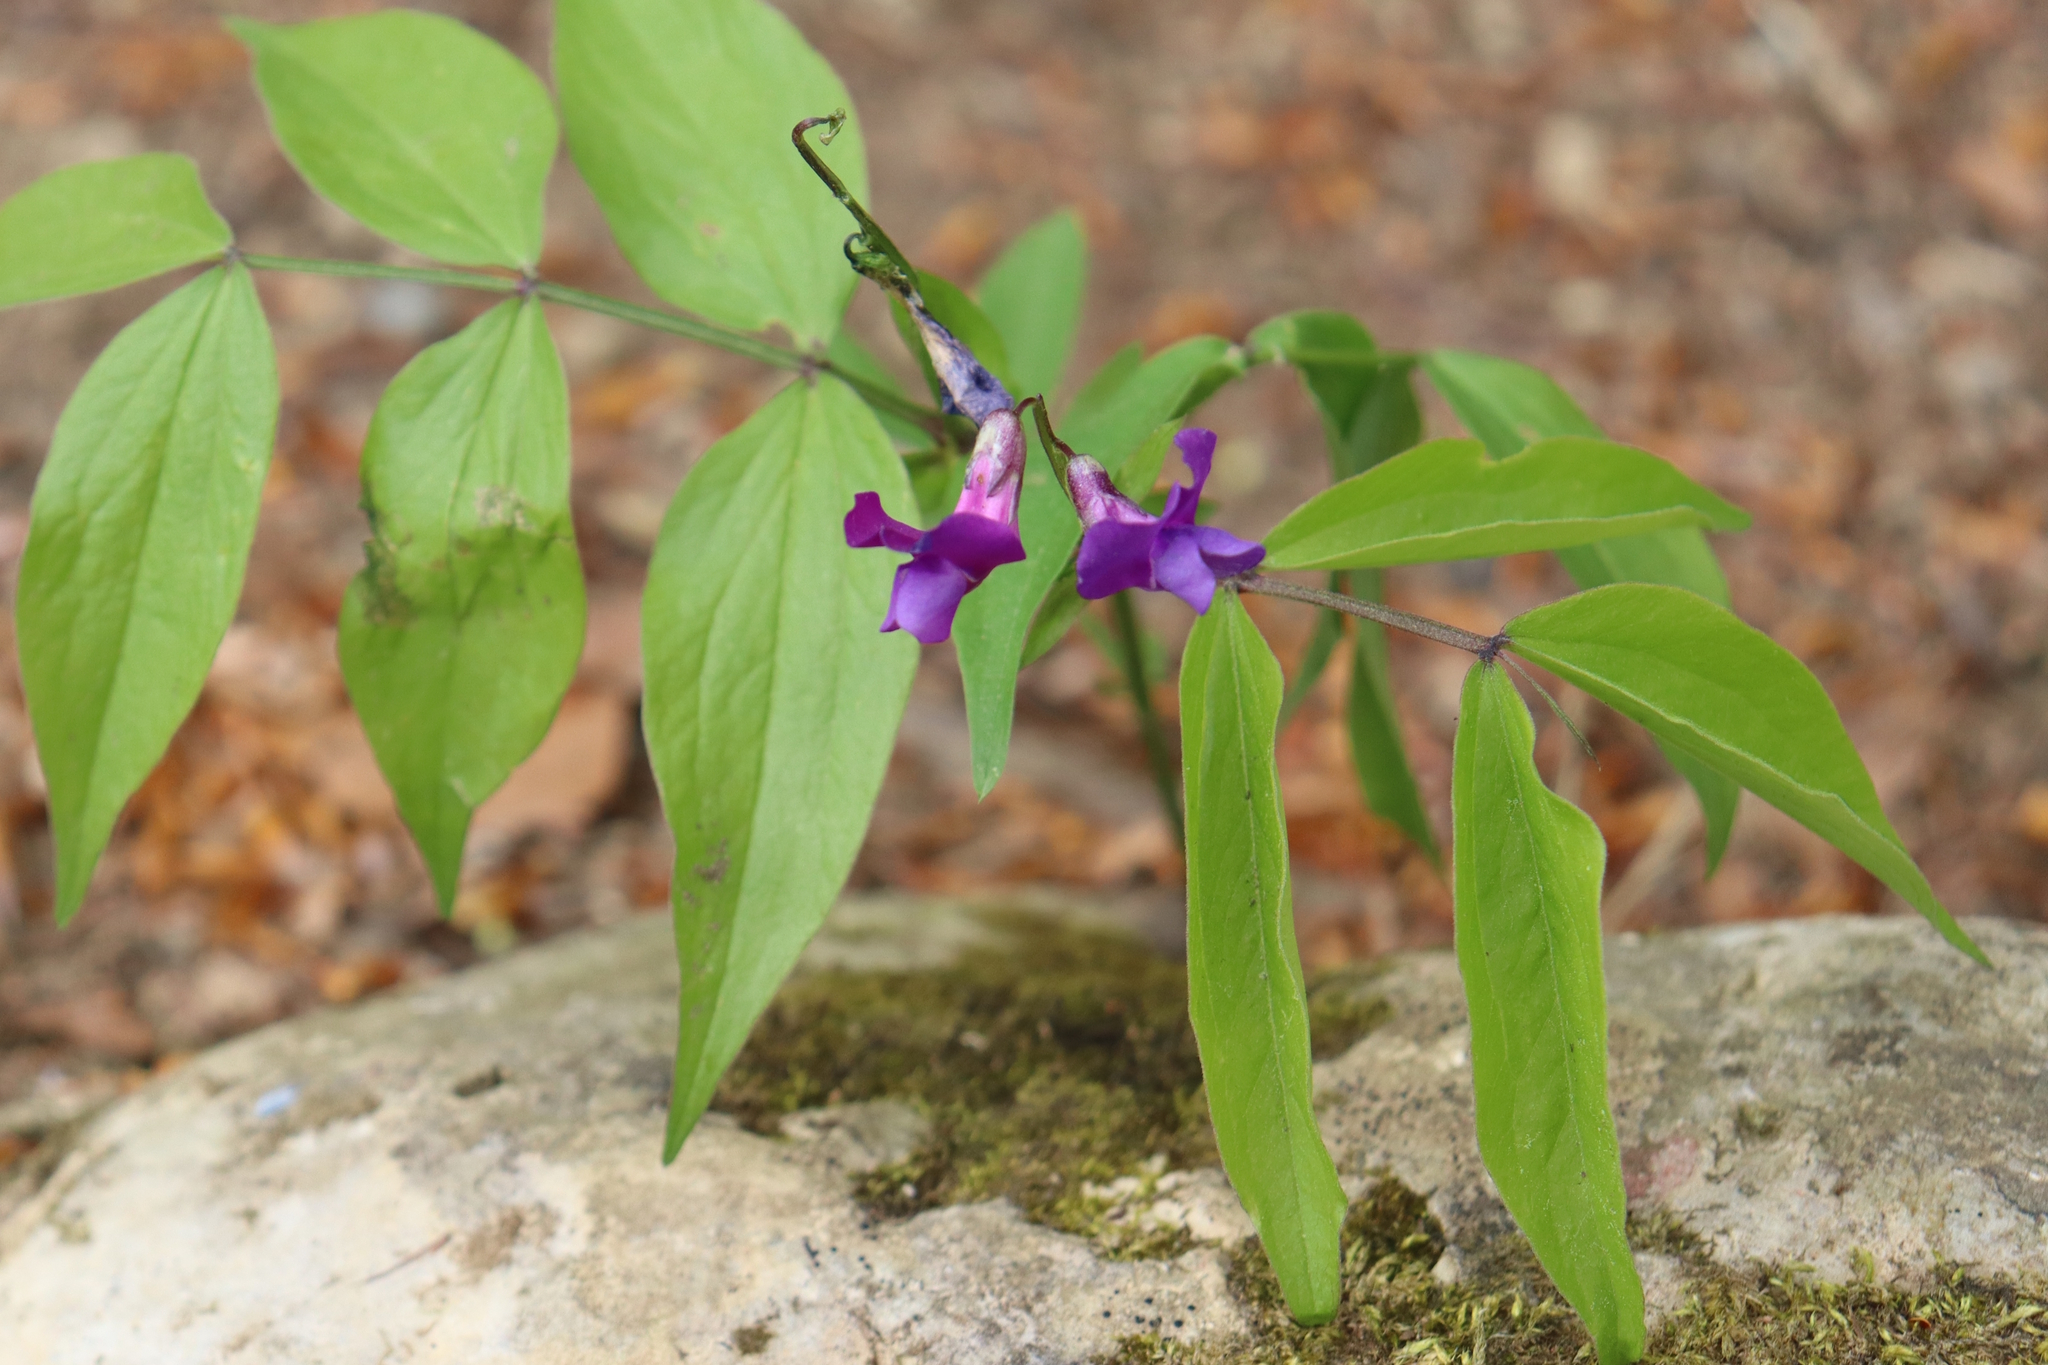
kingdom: Plantae
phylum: Tracheophyta
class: Magnoliopsida
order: Fabales
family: Fabaceae
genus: Lathyrus
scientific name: Lathyrus vernus
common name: Spring pea
